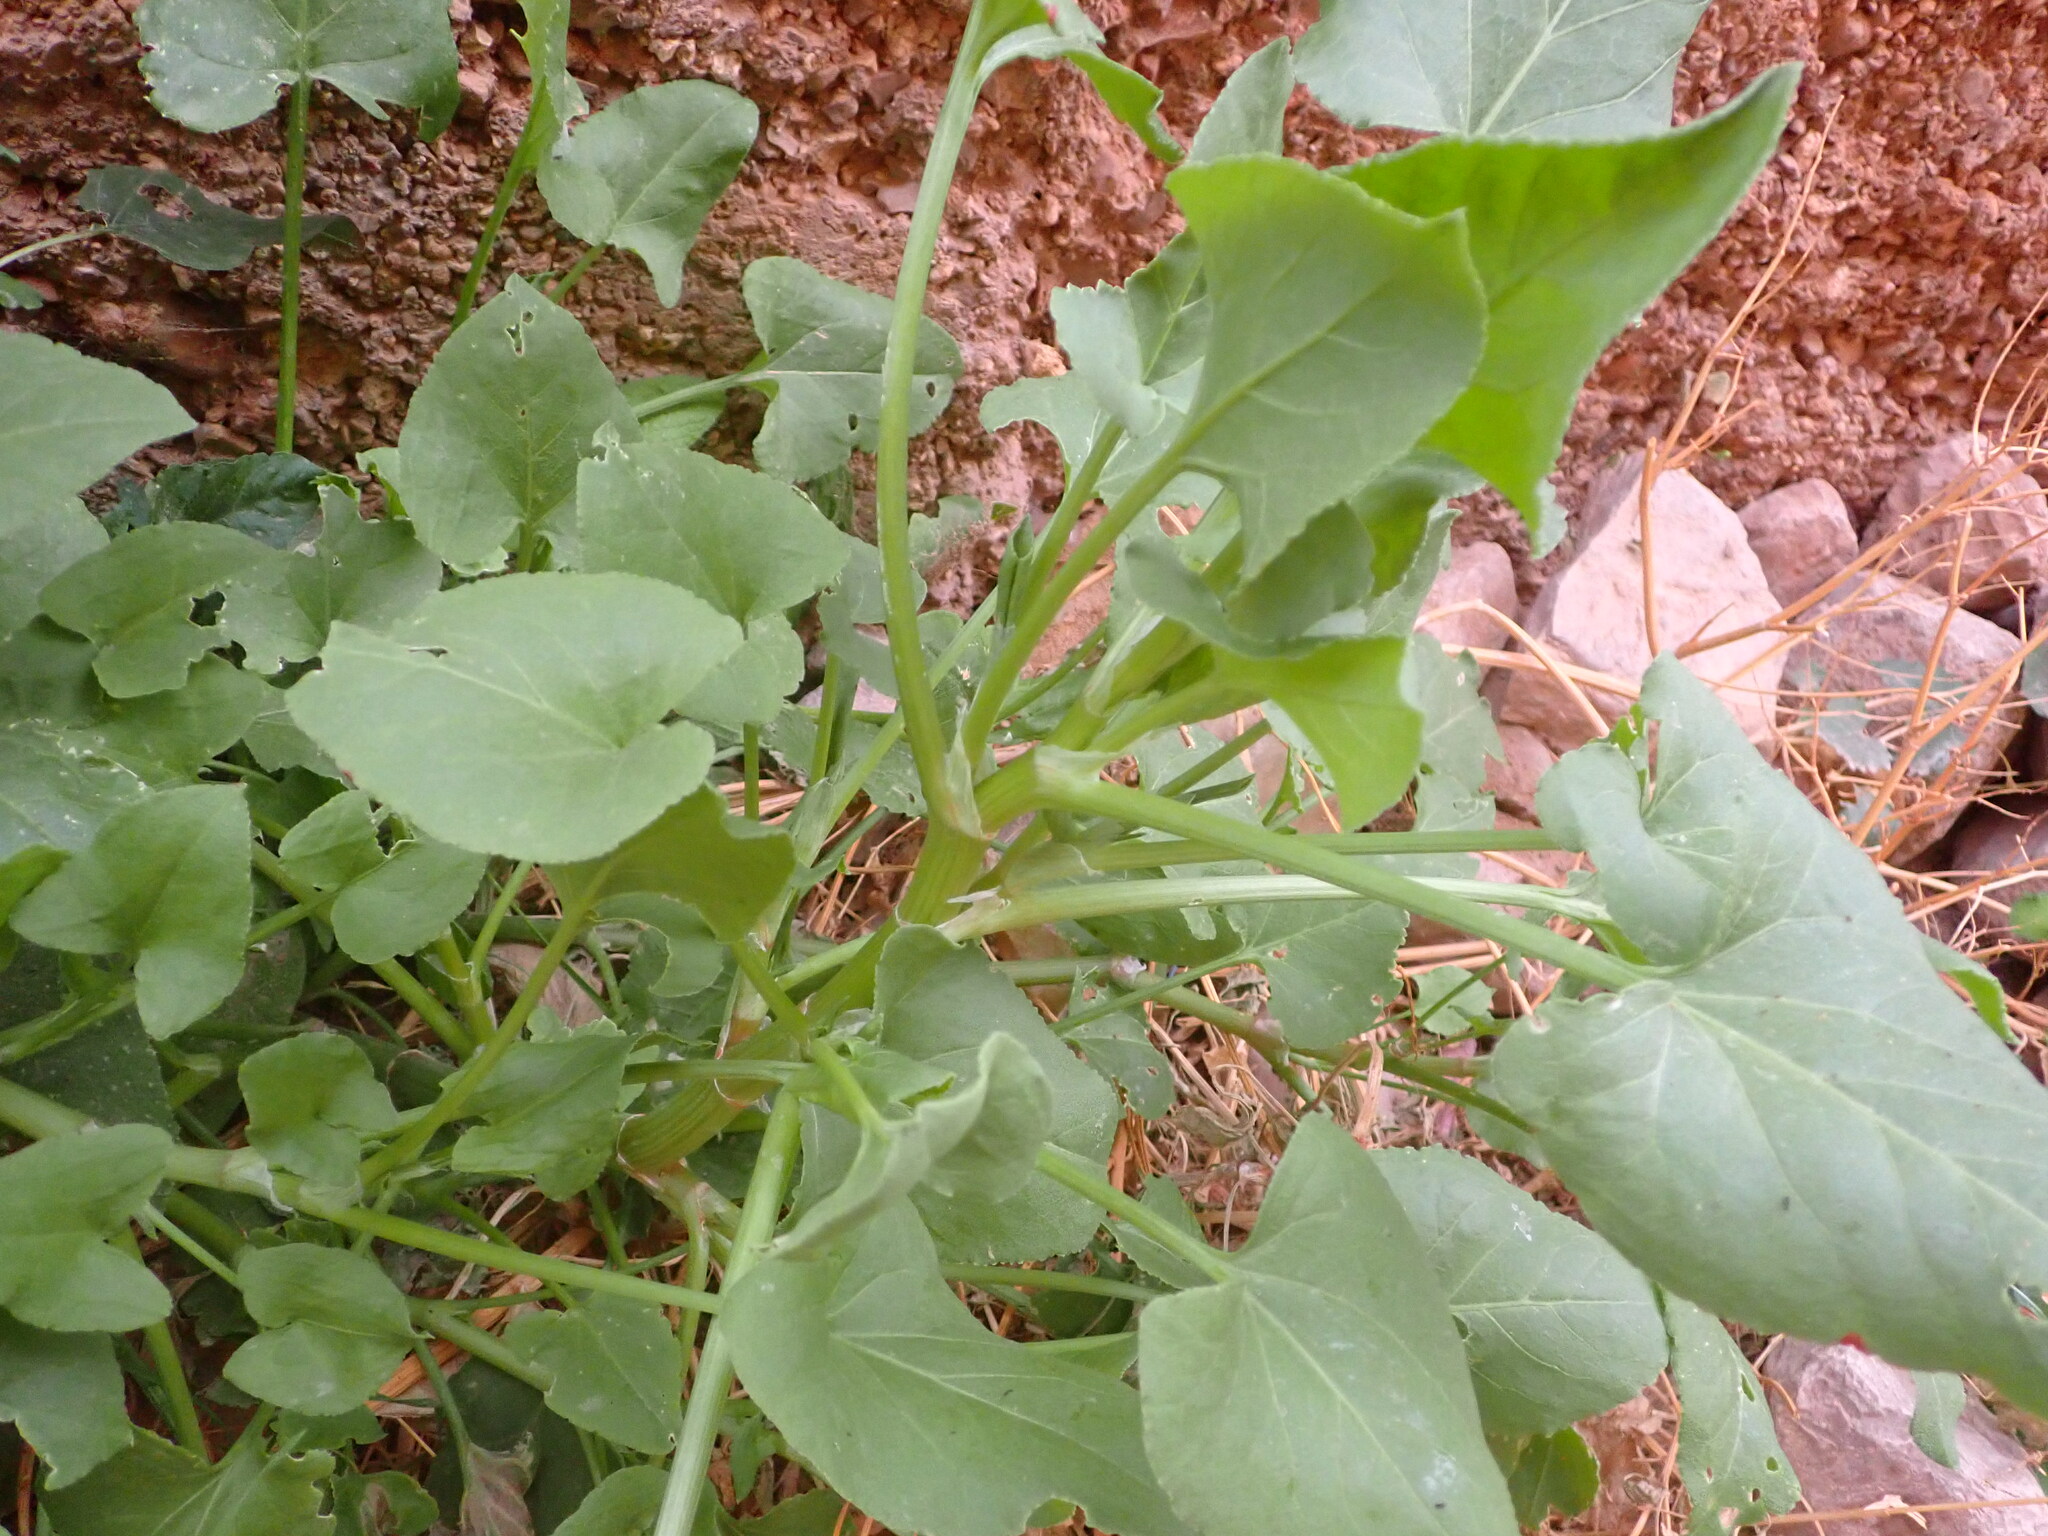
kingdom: Plantae
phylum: Tracheophyta
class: Magnoliopsida
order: Caryophyllales
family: Polygonaceae
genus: Rumex
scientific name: Rumex vesicarius
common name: Bladder dock
